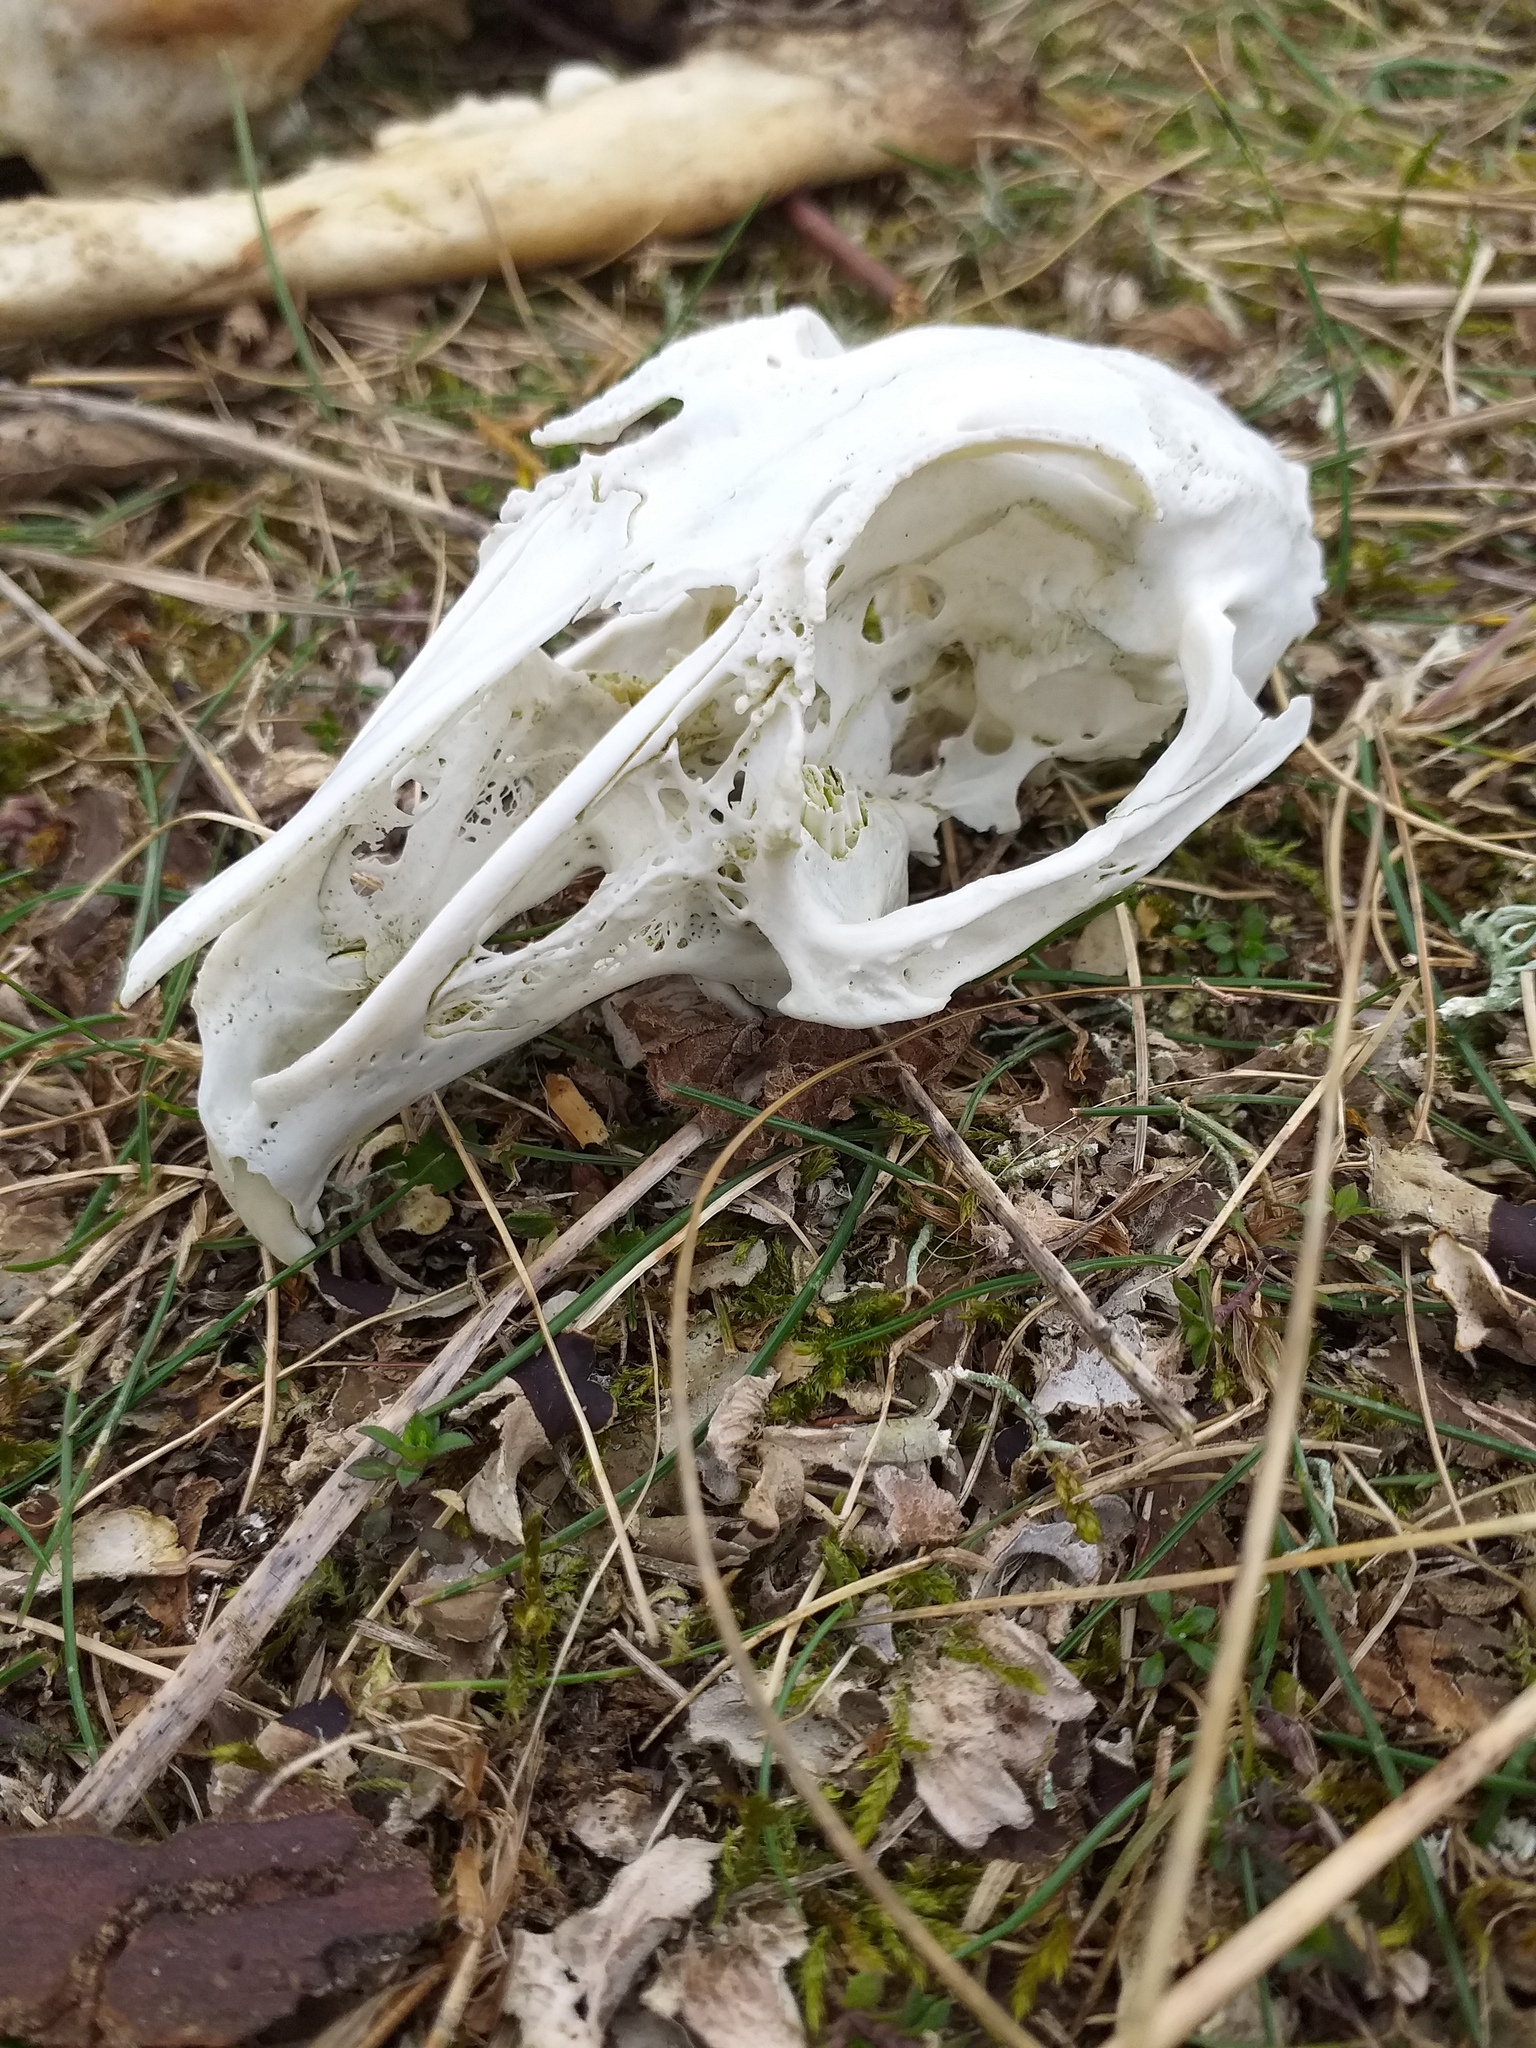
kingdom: Animalia
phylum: Chordata
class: Mammalia
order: Lagomorpha
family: Leporidae
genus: Oryctolagus
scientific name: Oryctolagus cuniculus
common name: European rabbit
